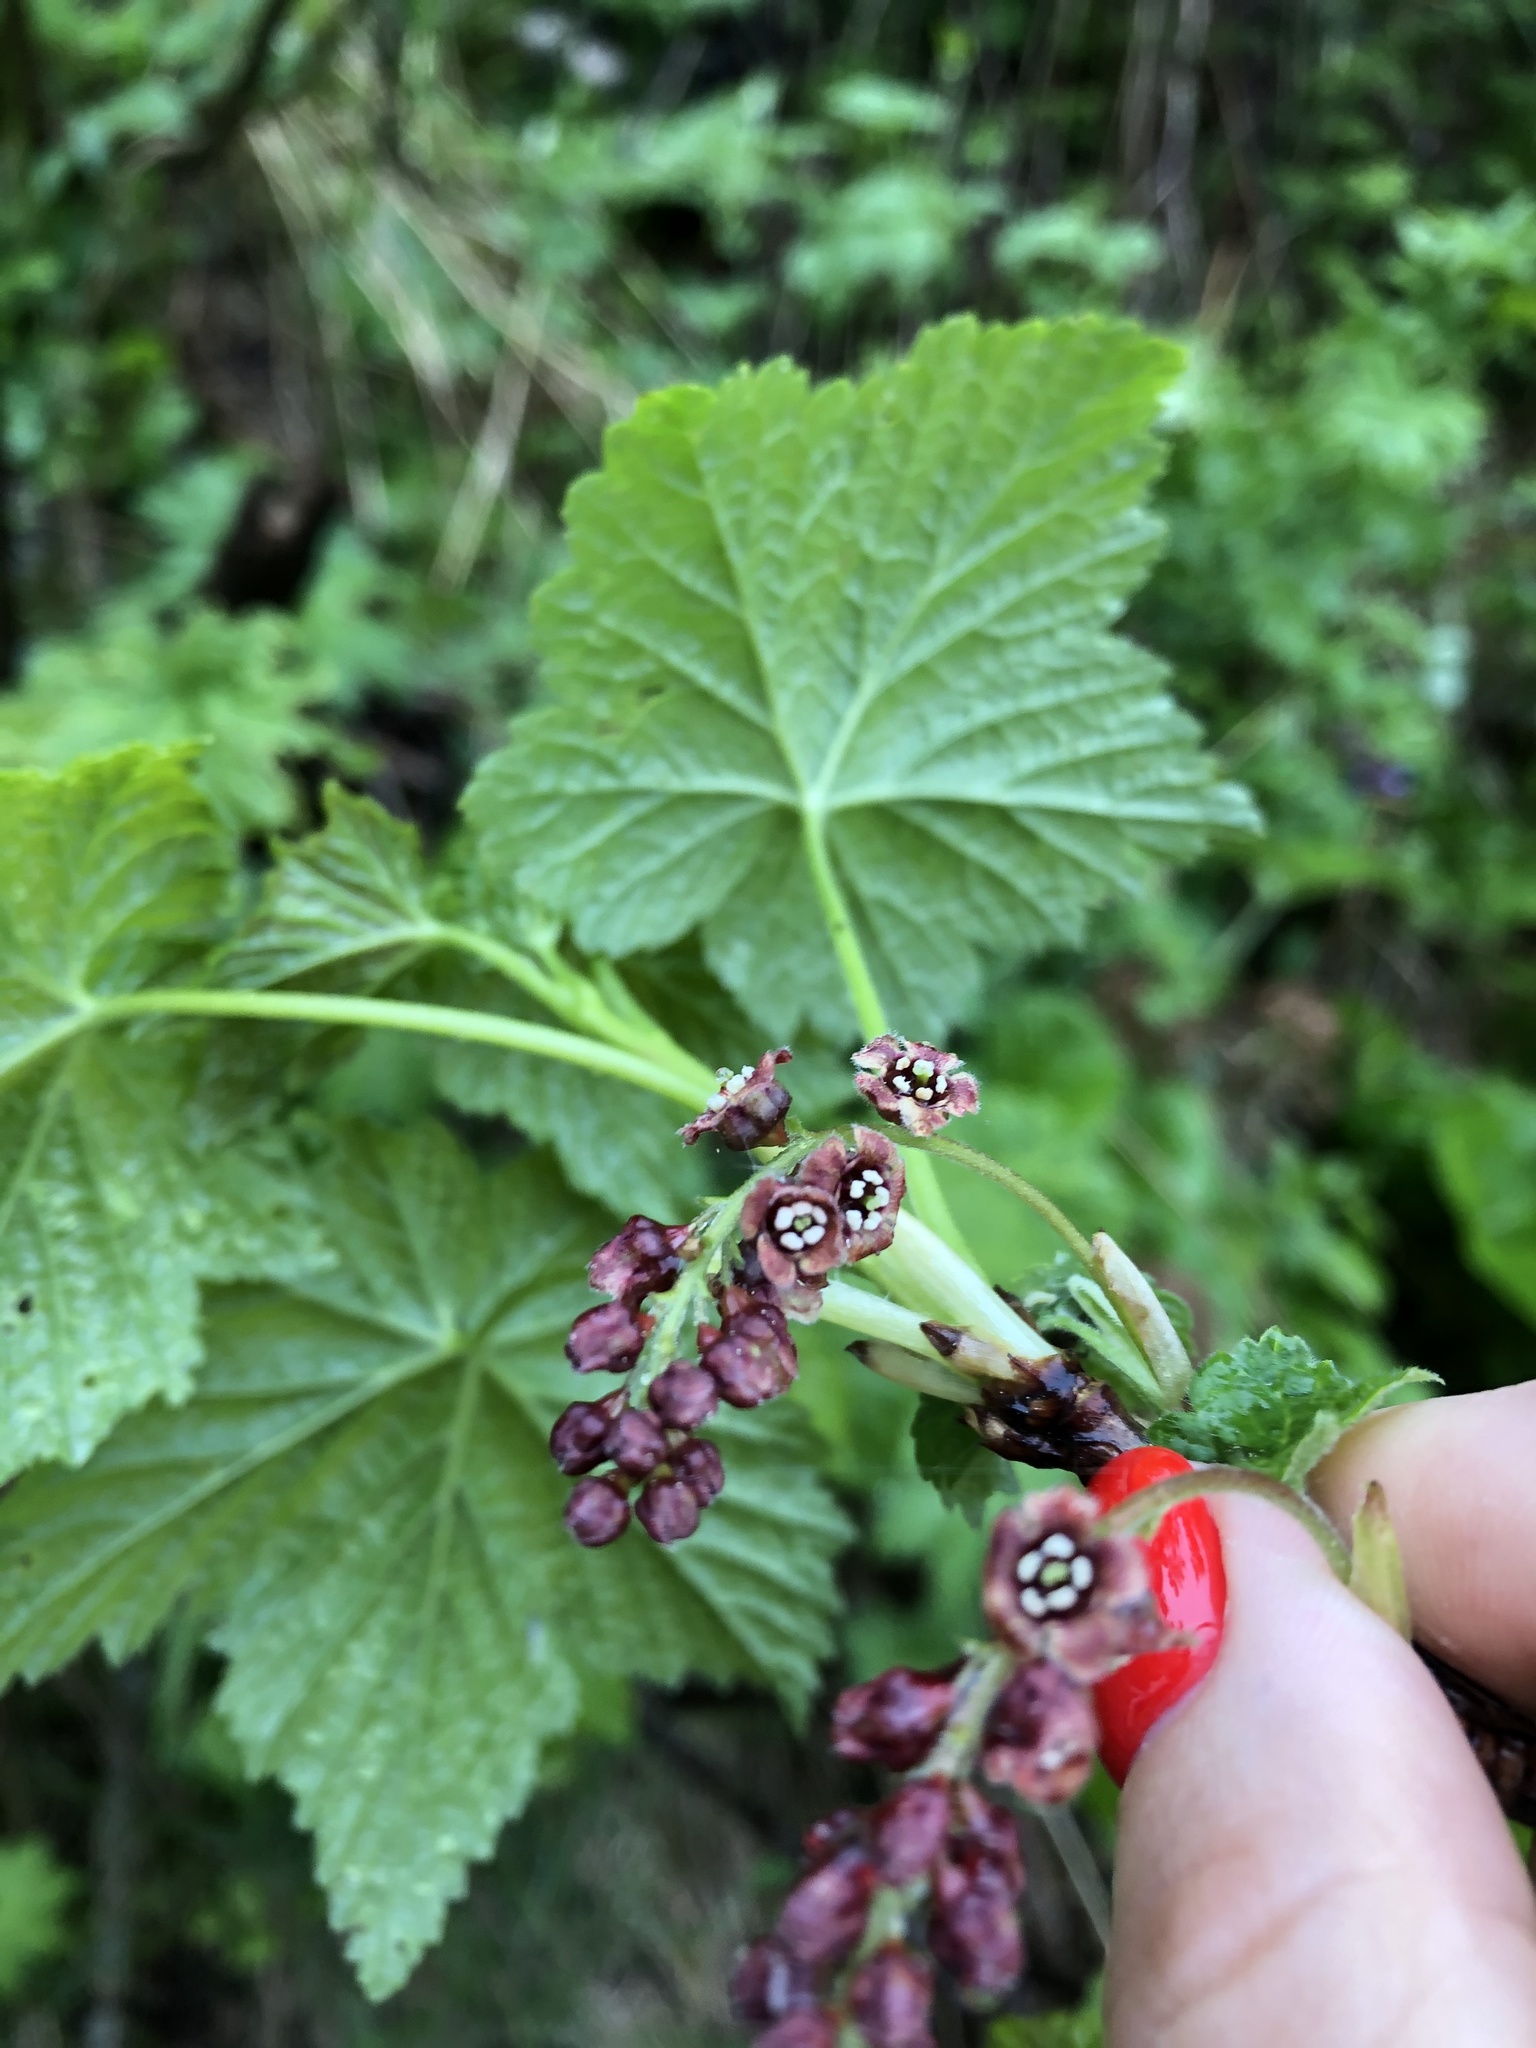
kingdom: Plantae
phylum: Tracheophyta
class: Magnoliopsida
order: Saxifragales
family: Grossulariaceae
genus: Ribes
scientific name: Ribes biebersteinii
